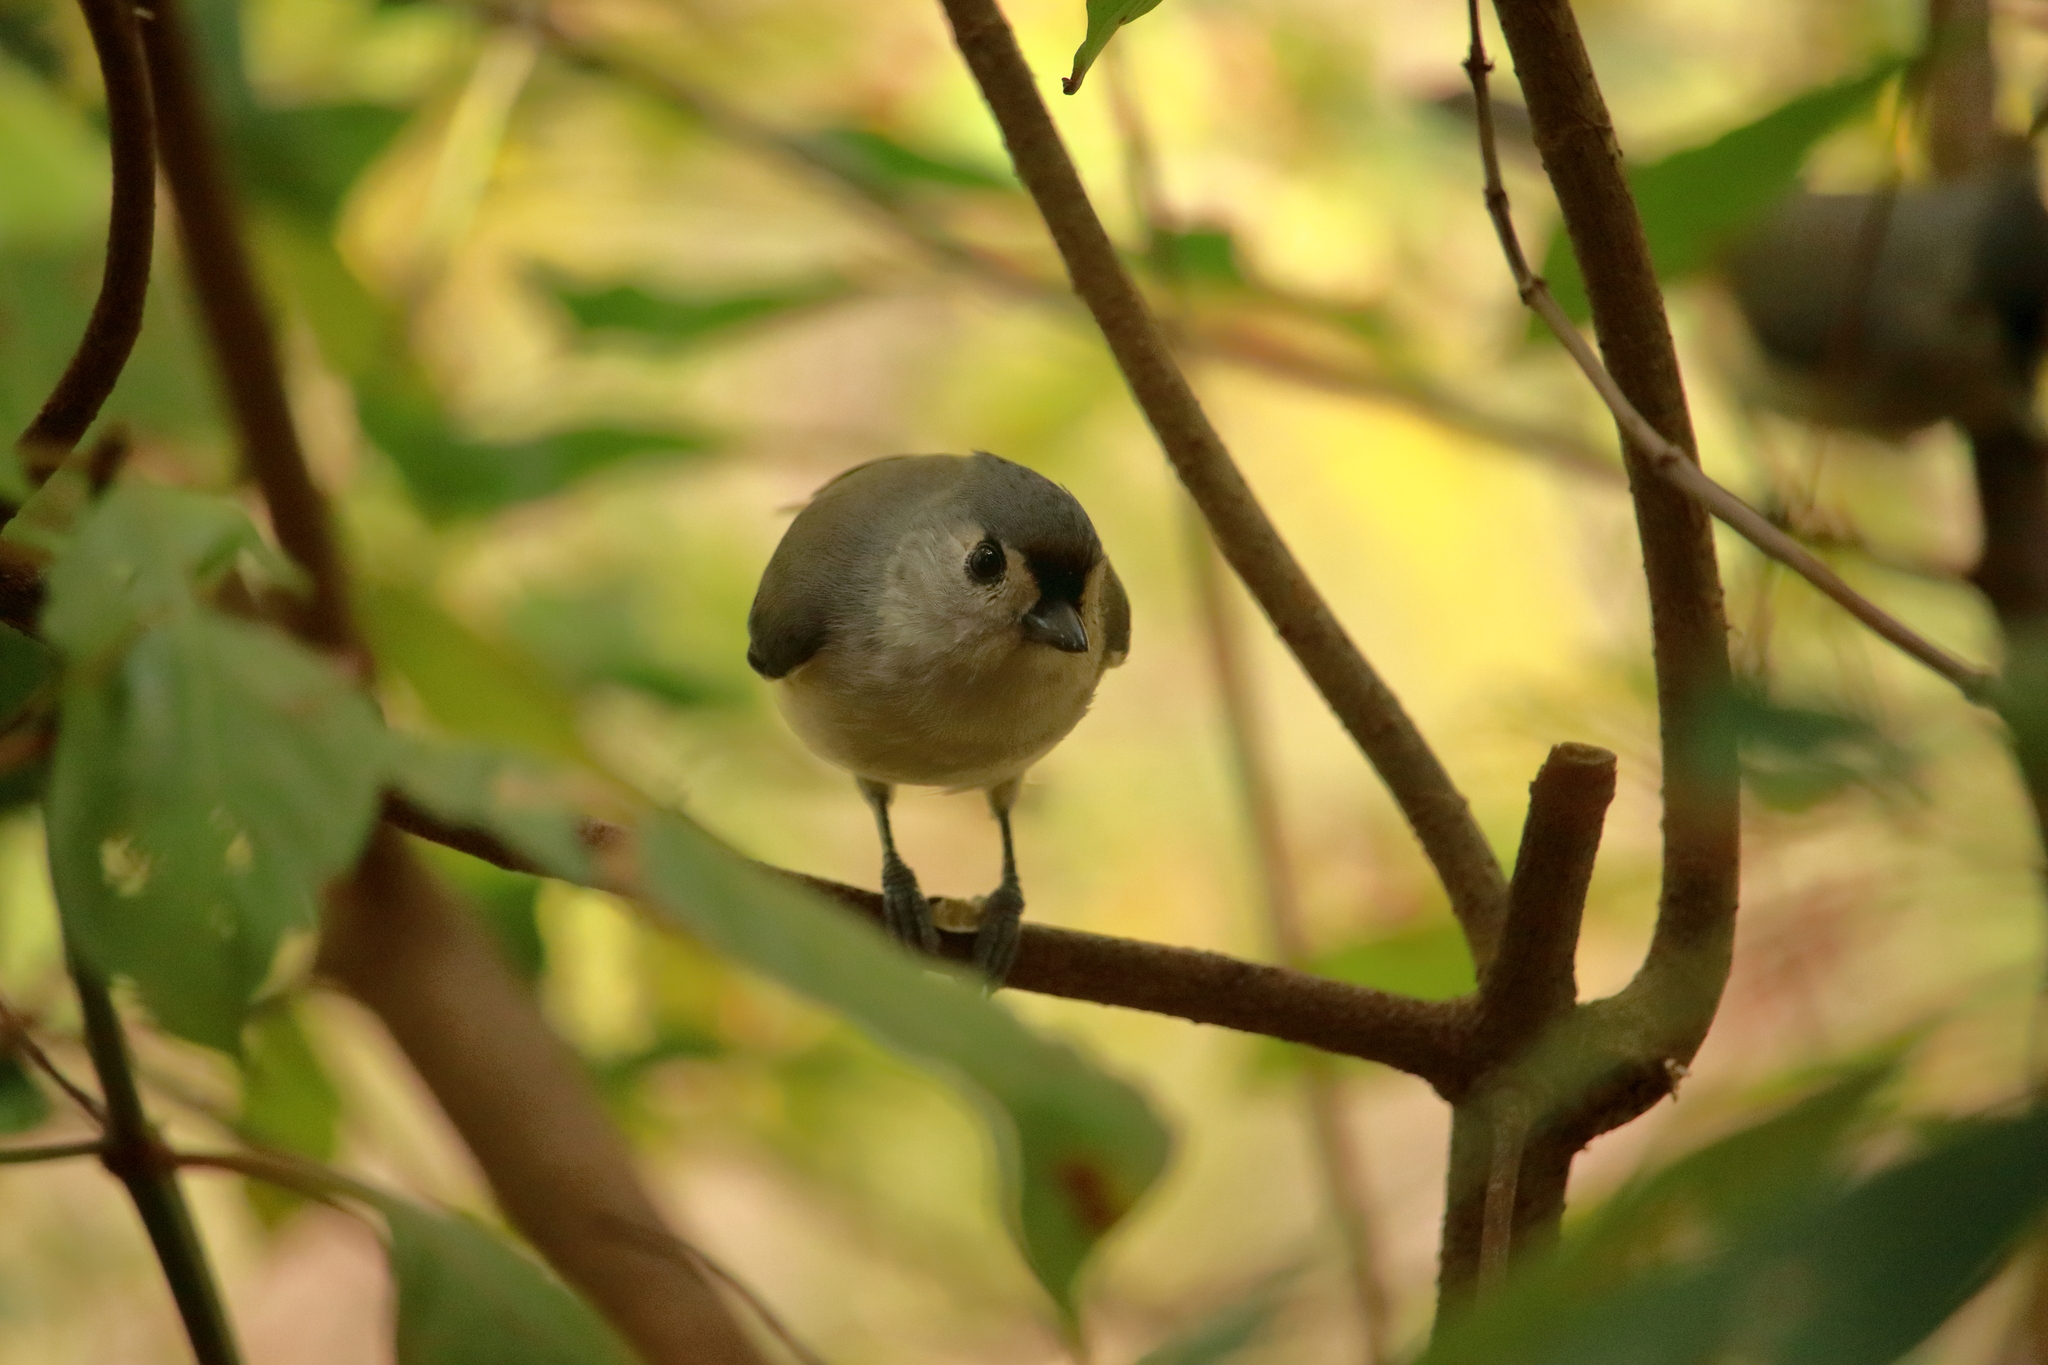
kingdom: Animalia
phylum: Chordata
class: Aves
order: Passeriformes
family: Paridae
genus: Baeolophus
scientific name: Baeolophus bicolor
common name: Tufted titmouse
